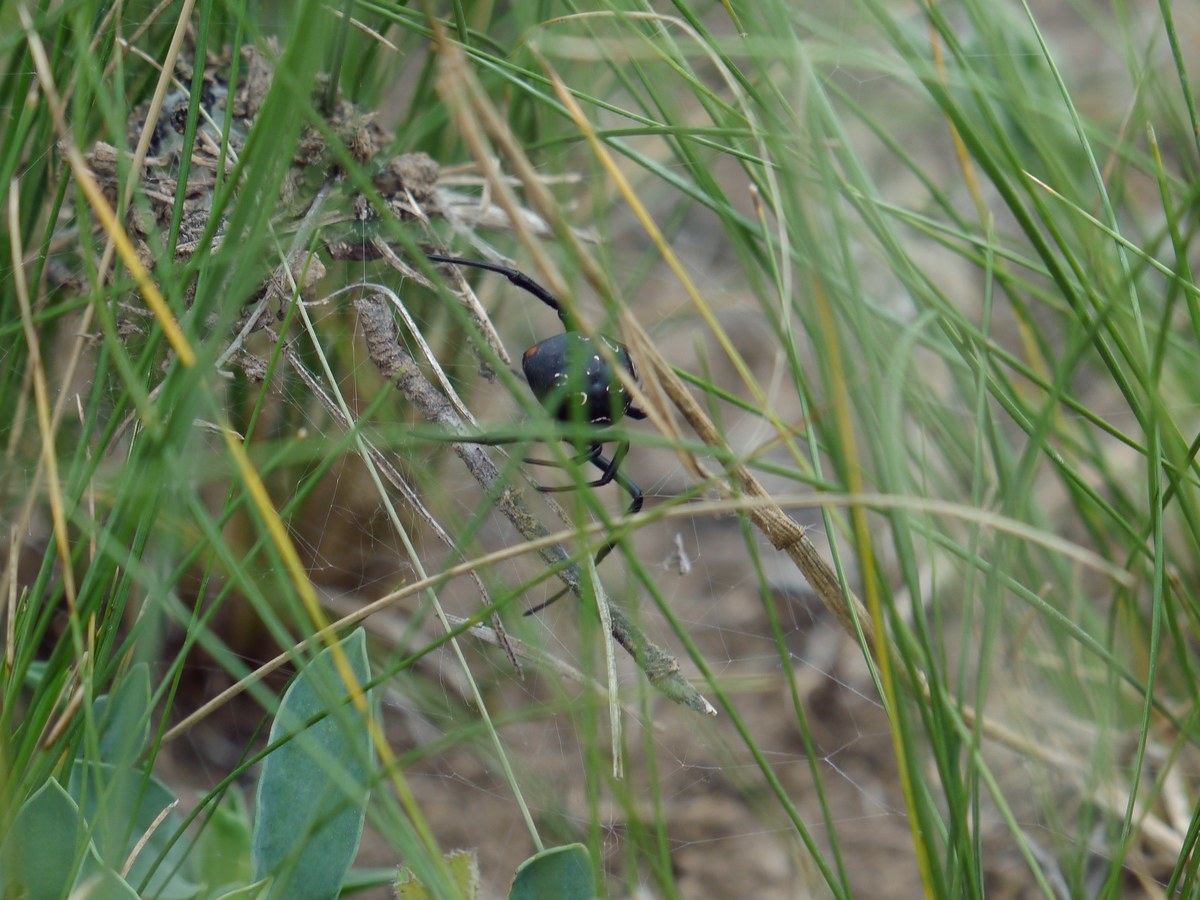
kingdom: Animalia
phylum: Arthropoda
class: Arachnida
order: Araneae
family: Theridiidae
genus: Latrodectus
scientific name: Latrodectus tredecimguttatus
